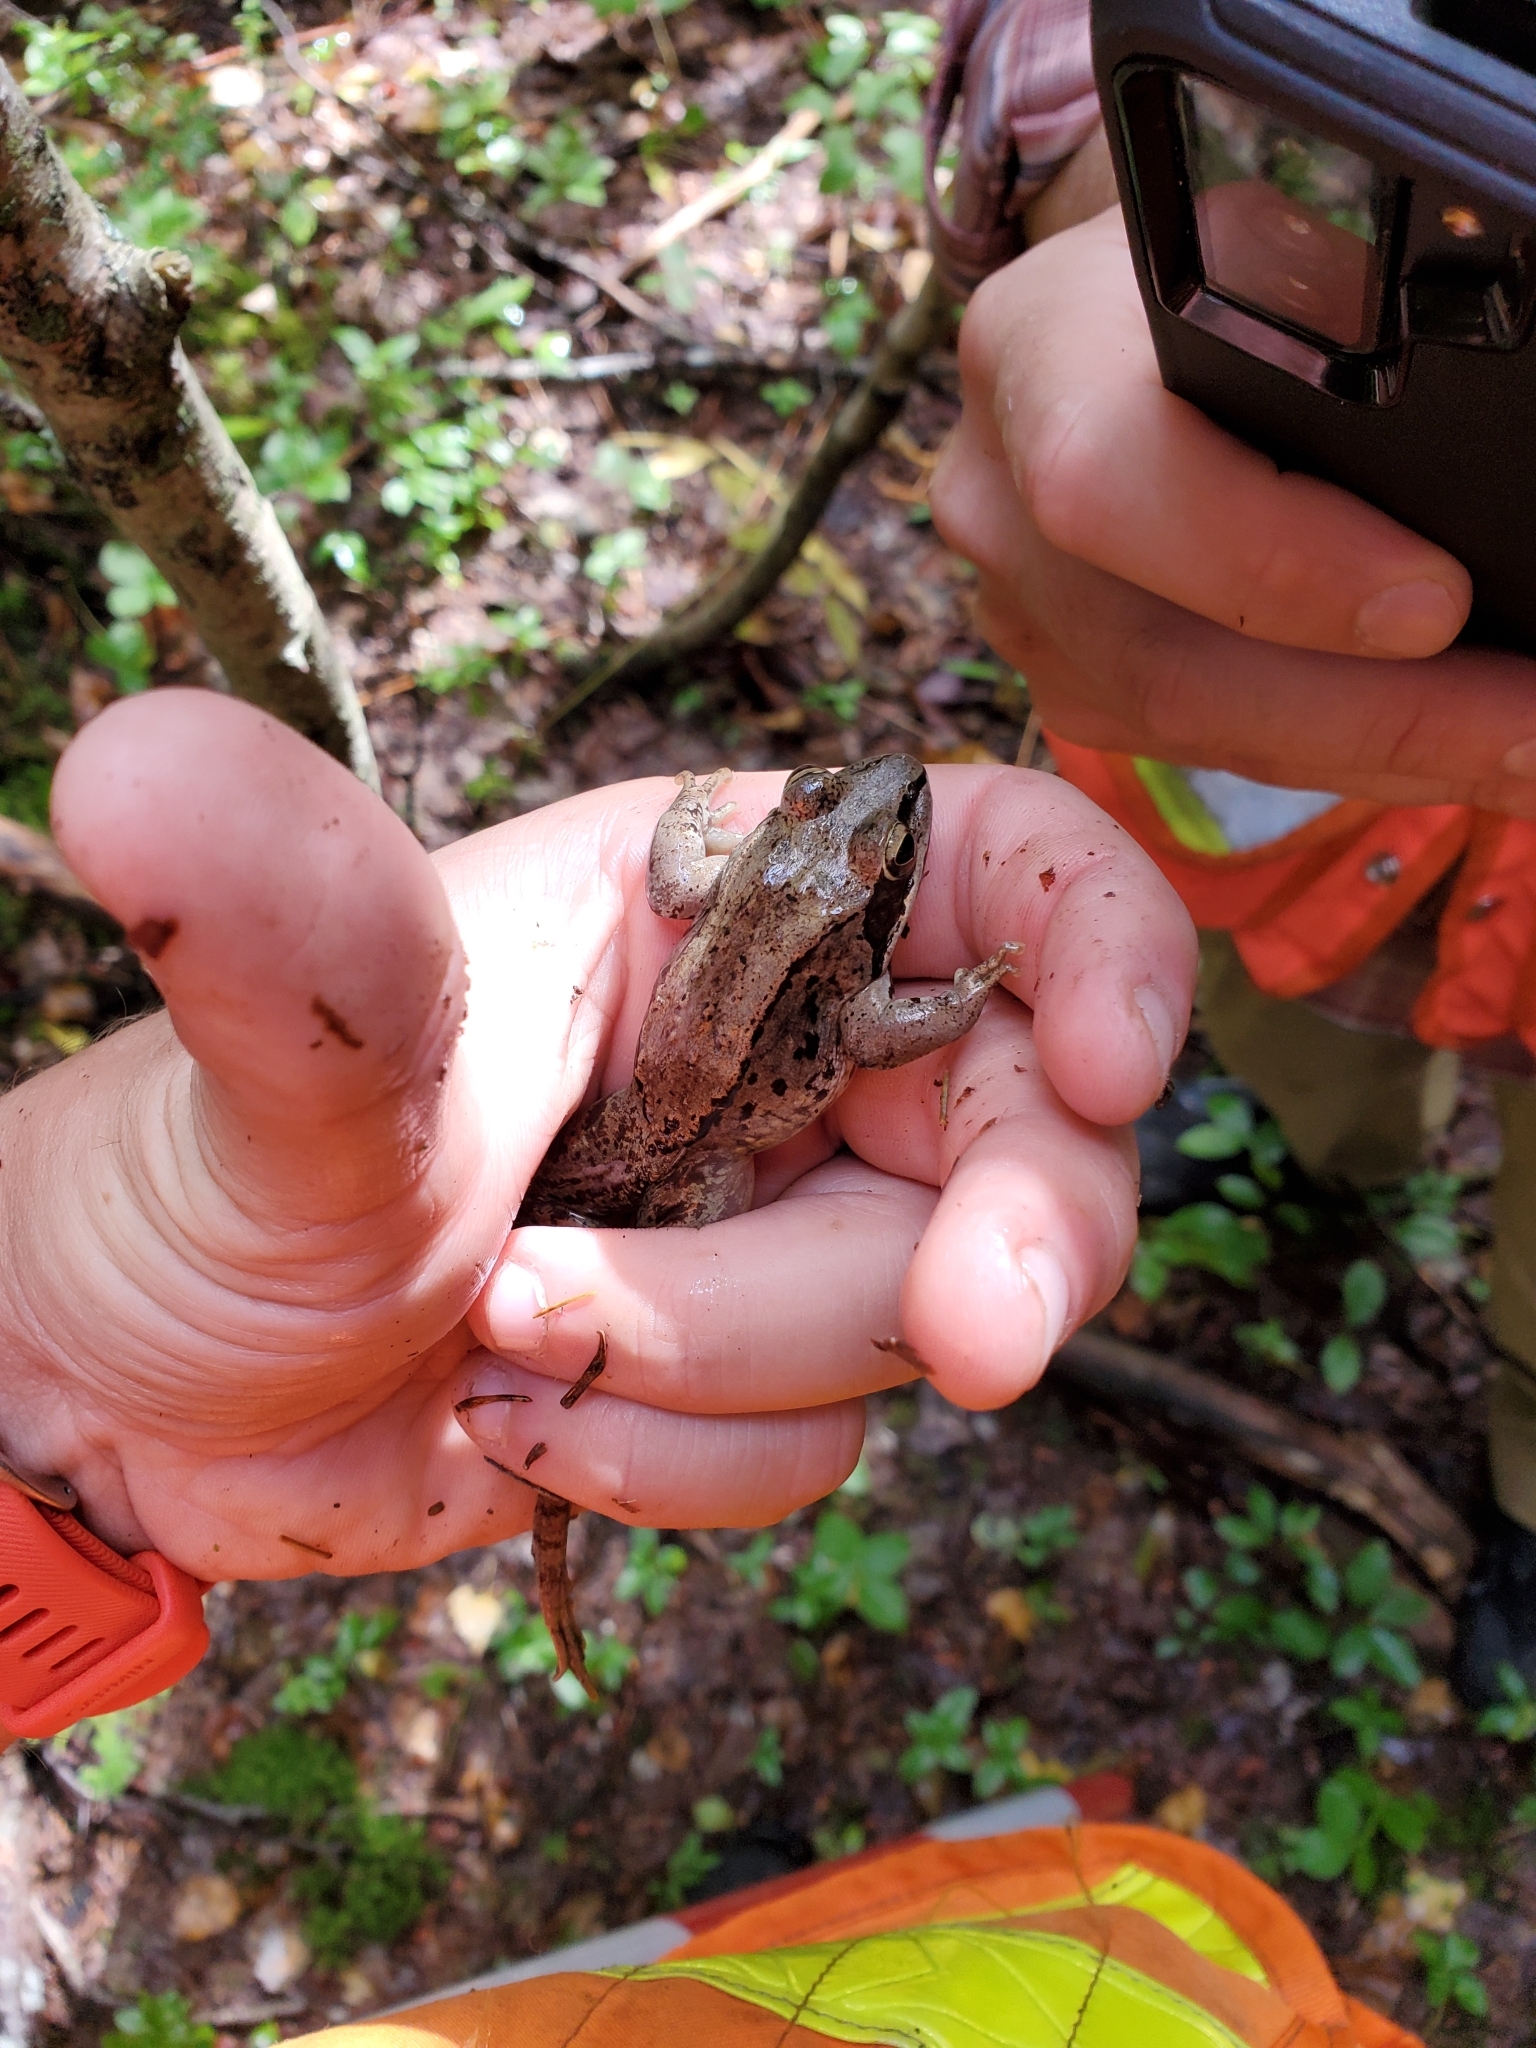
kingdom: Animalia
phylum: Chordata
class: Amphibia
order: Anura
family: Ranidae
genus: Lithobates
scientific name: Lithobates sylvaticus
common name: Wood frog
